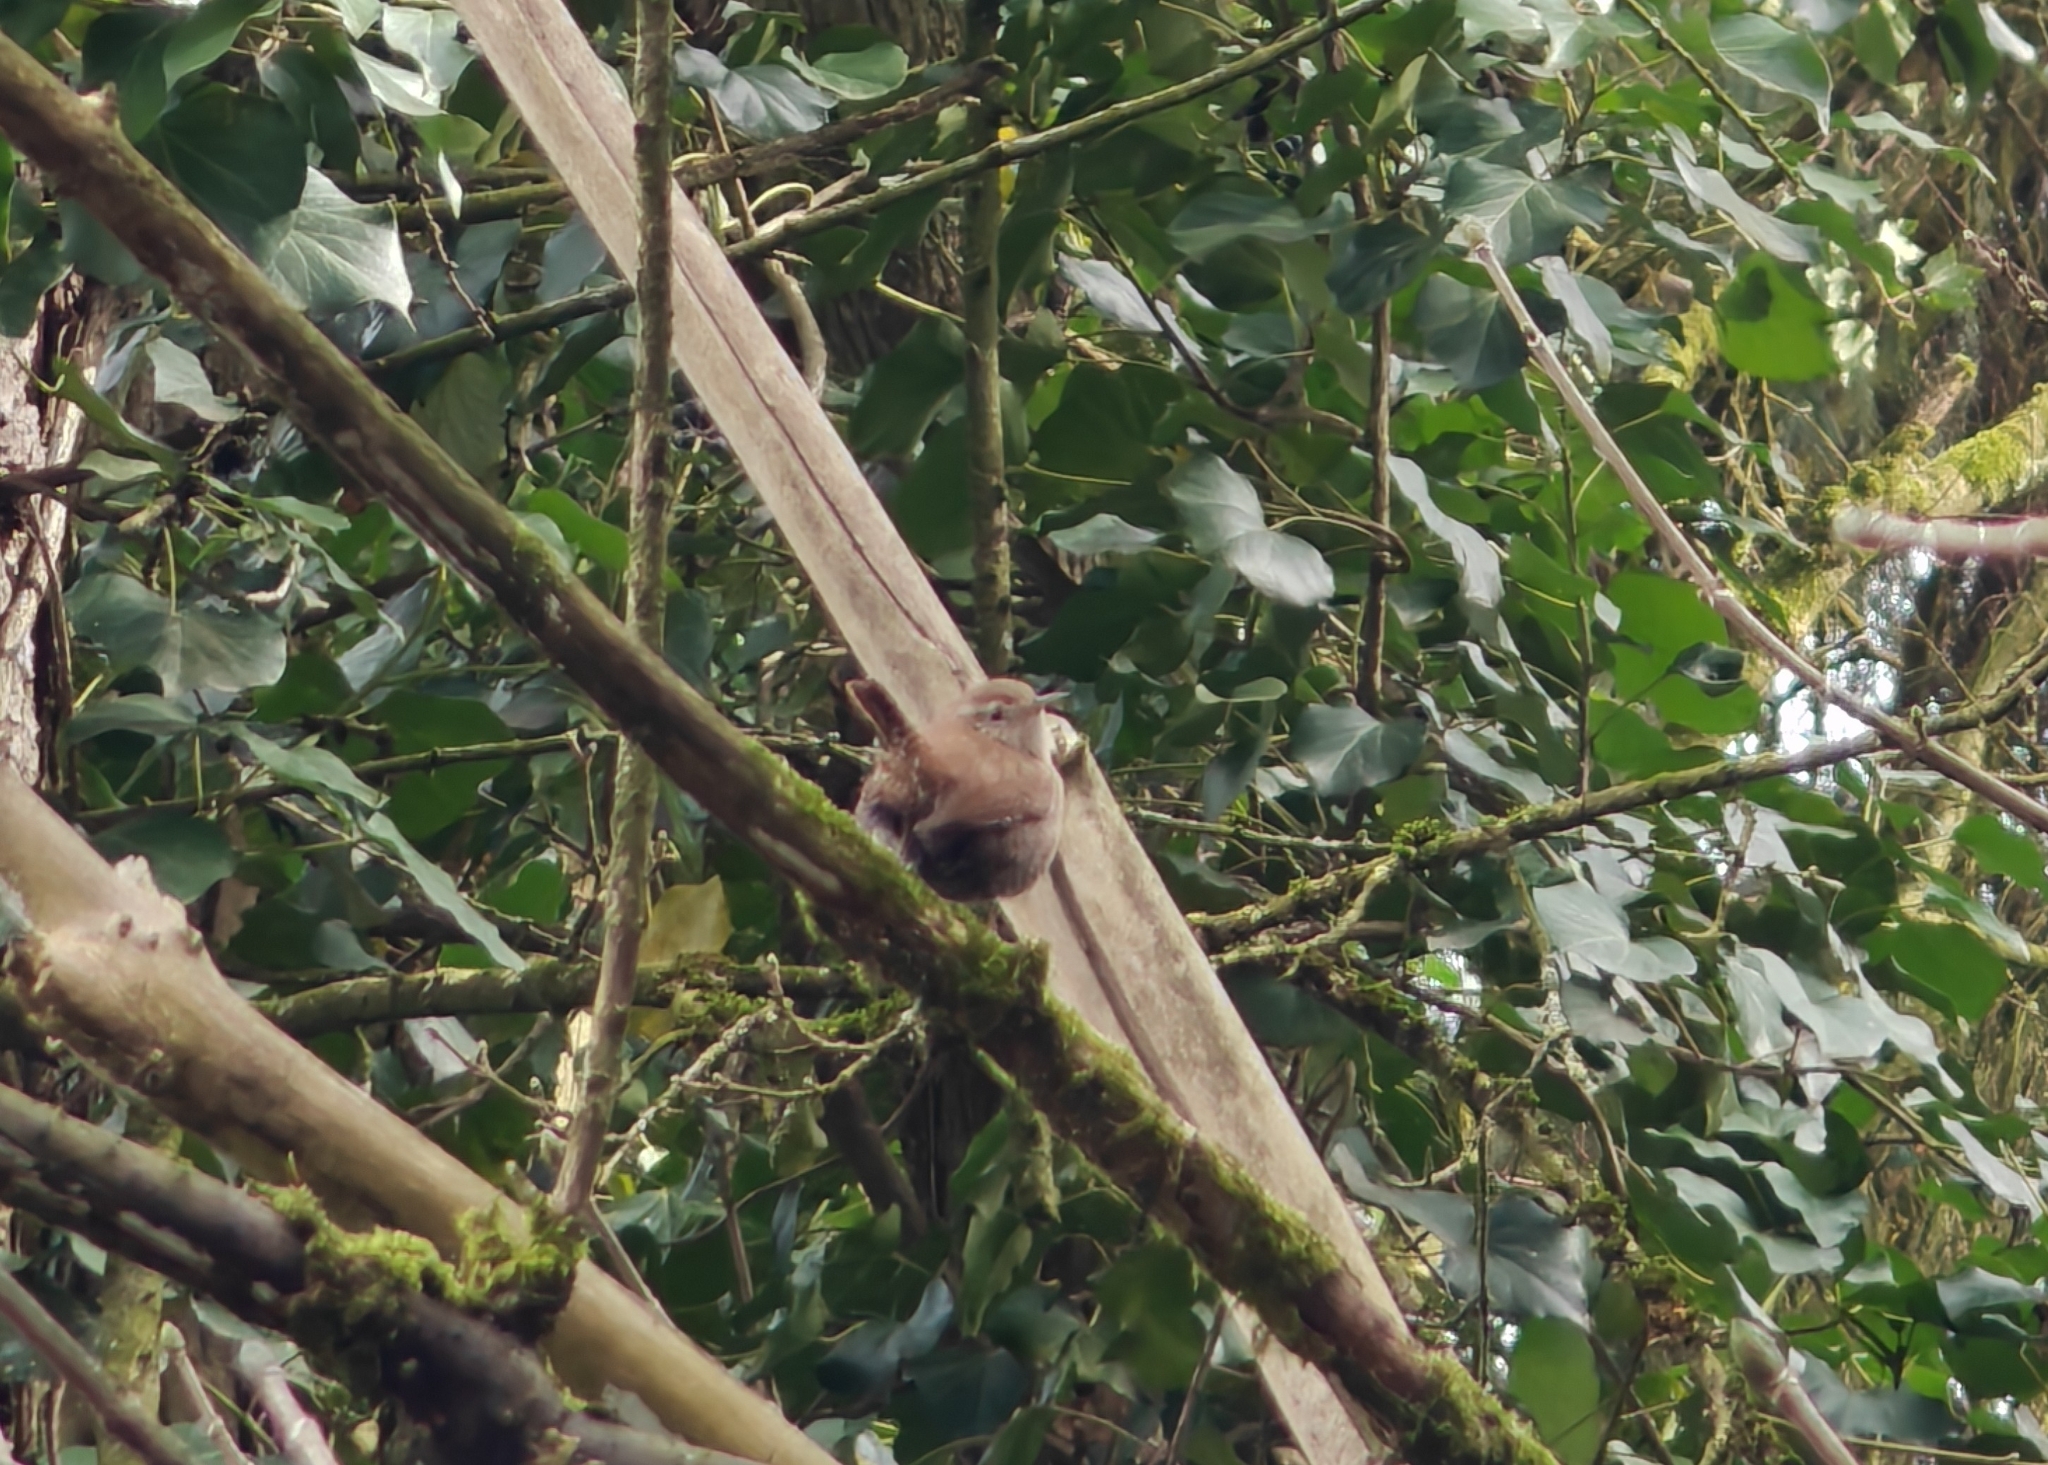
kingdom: Animalia
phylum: Chordata
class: Aves
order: Passeriformes
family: Troglodytidae
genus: Troglodytes
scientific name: Troglodytes troglodytes
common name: Eurasian wren
